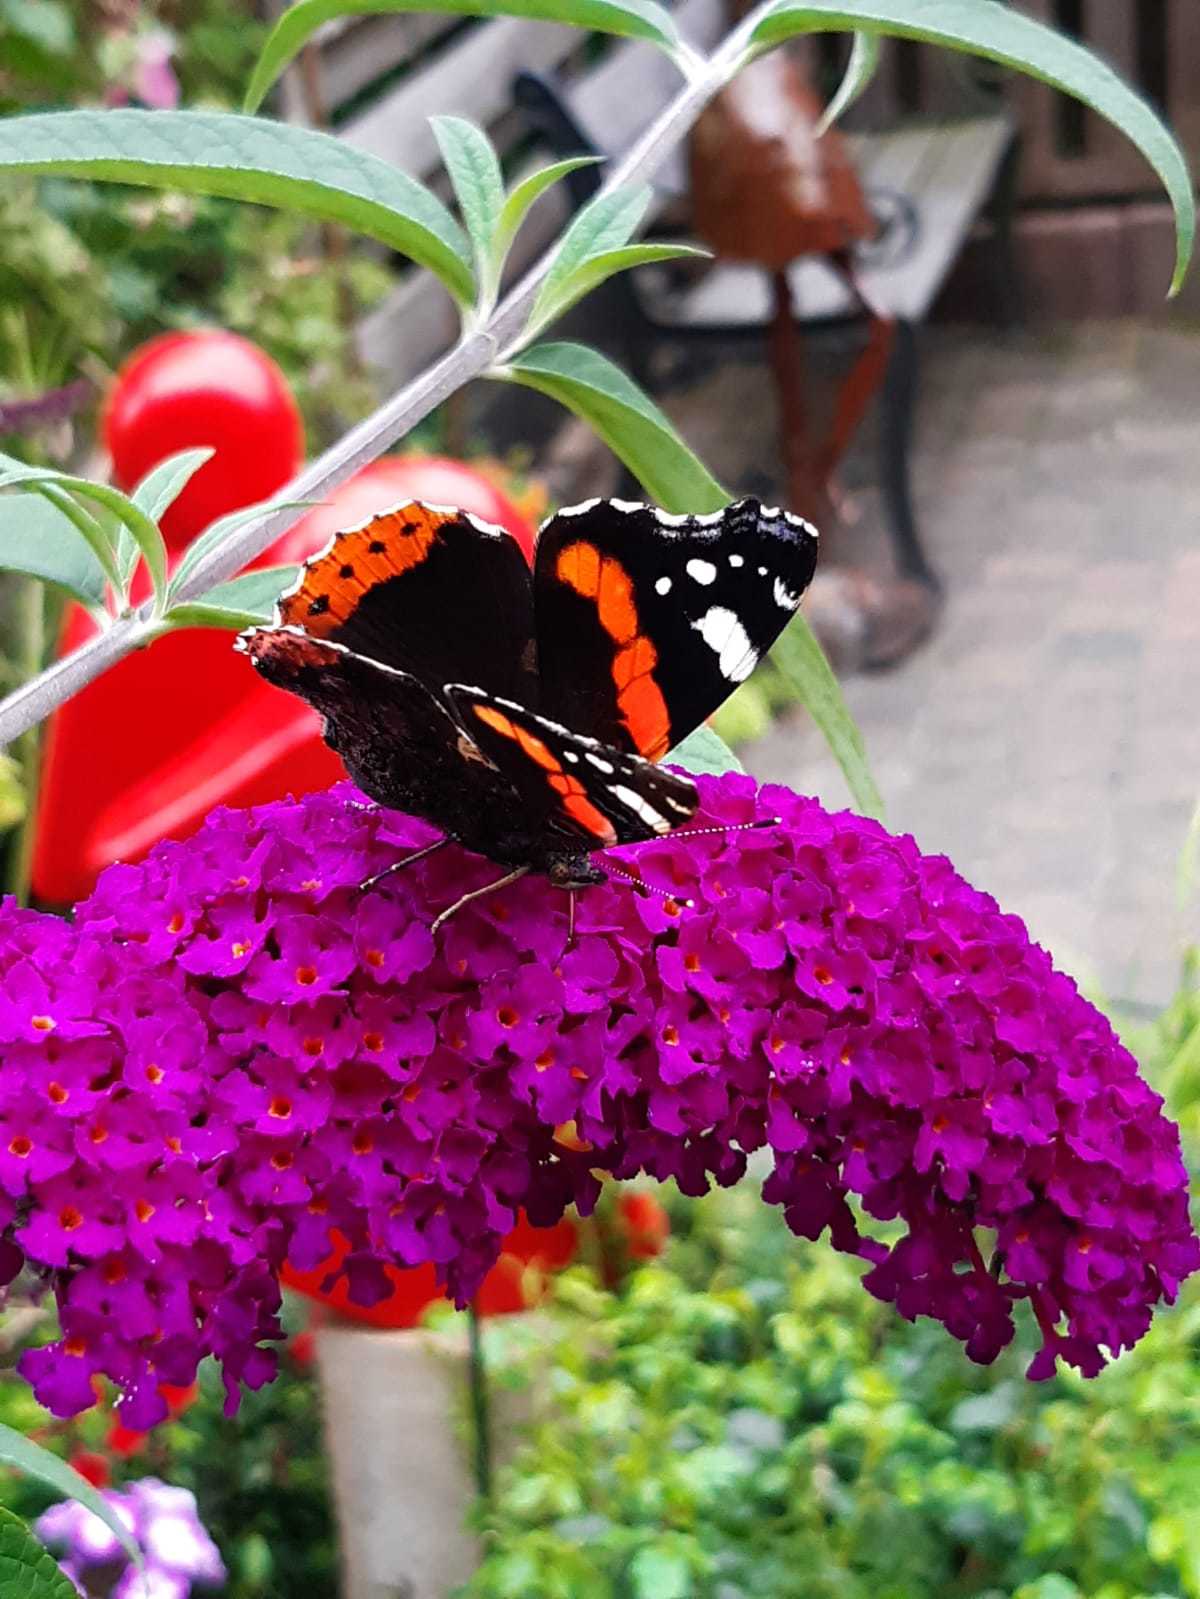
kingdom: Animalia
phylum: Arthropoda
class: Insecta
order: Lepidoptera
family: Nymphalidae
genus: Vanessa
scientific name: Vanessa atalanta
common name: Red admiral
